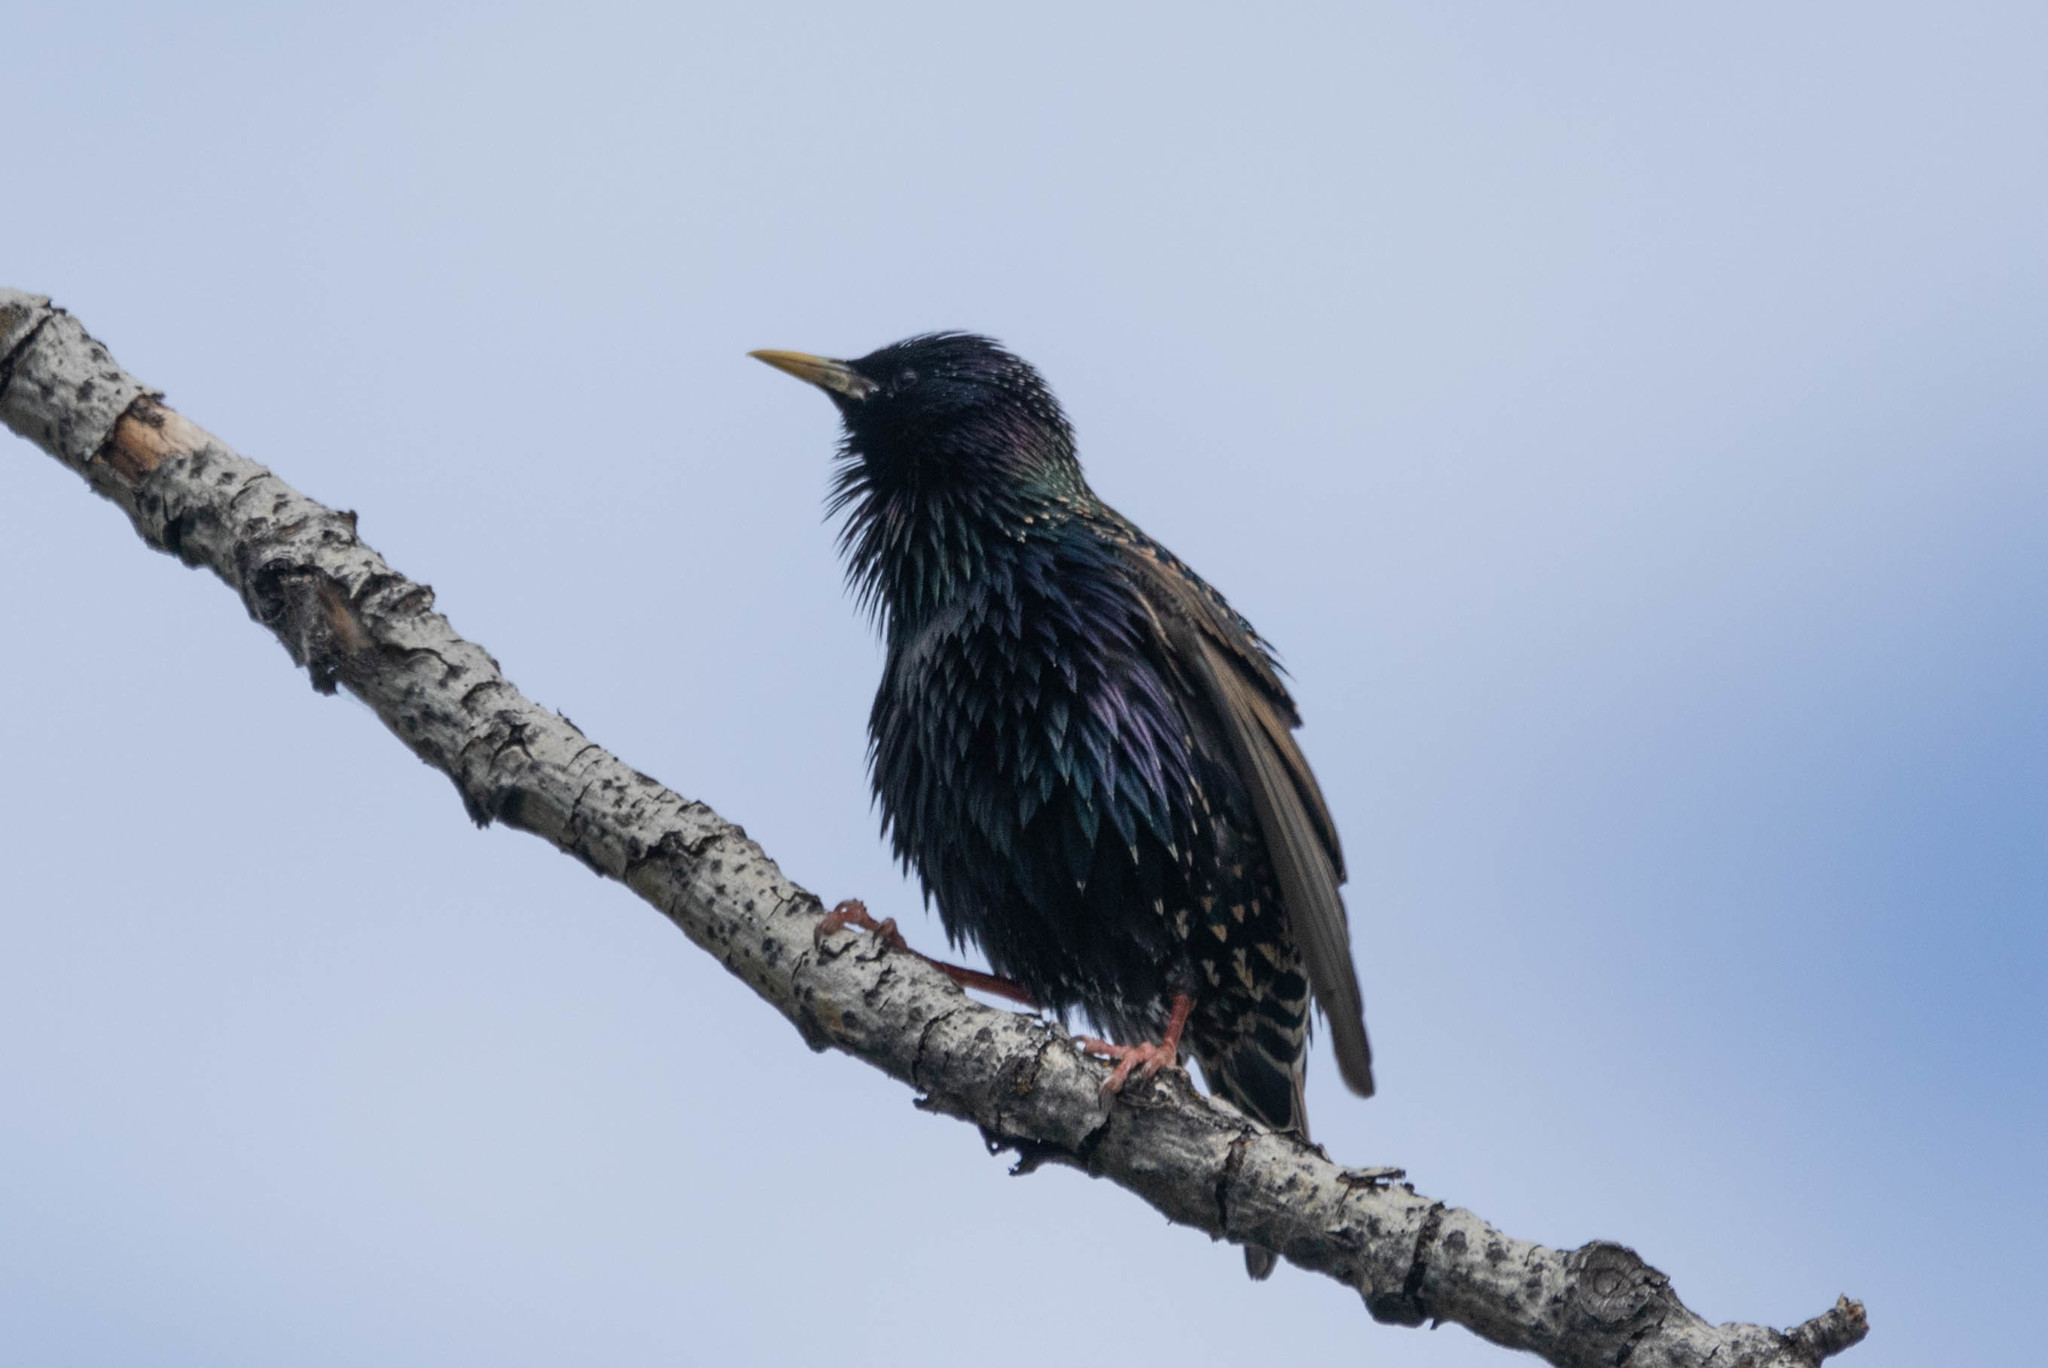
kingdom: Animalia
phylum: Chordata
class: Aves
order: Passeriformes
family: Sturnidae
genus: Sturnus
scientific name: Sturnus vulgaris
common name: Common starling
